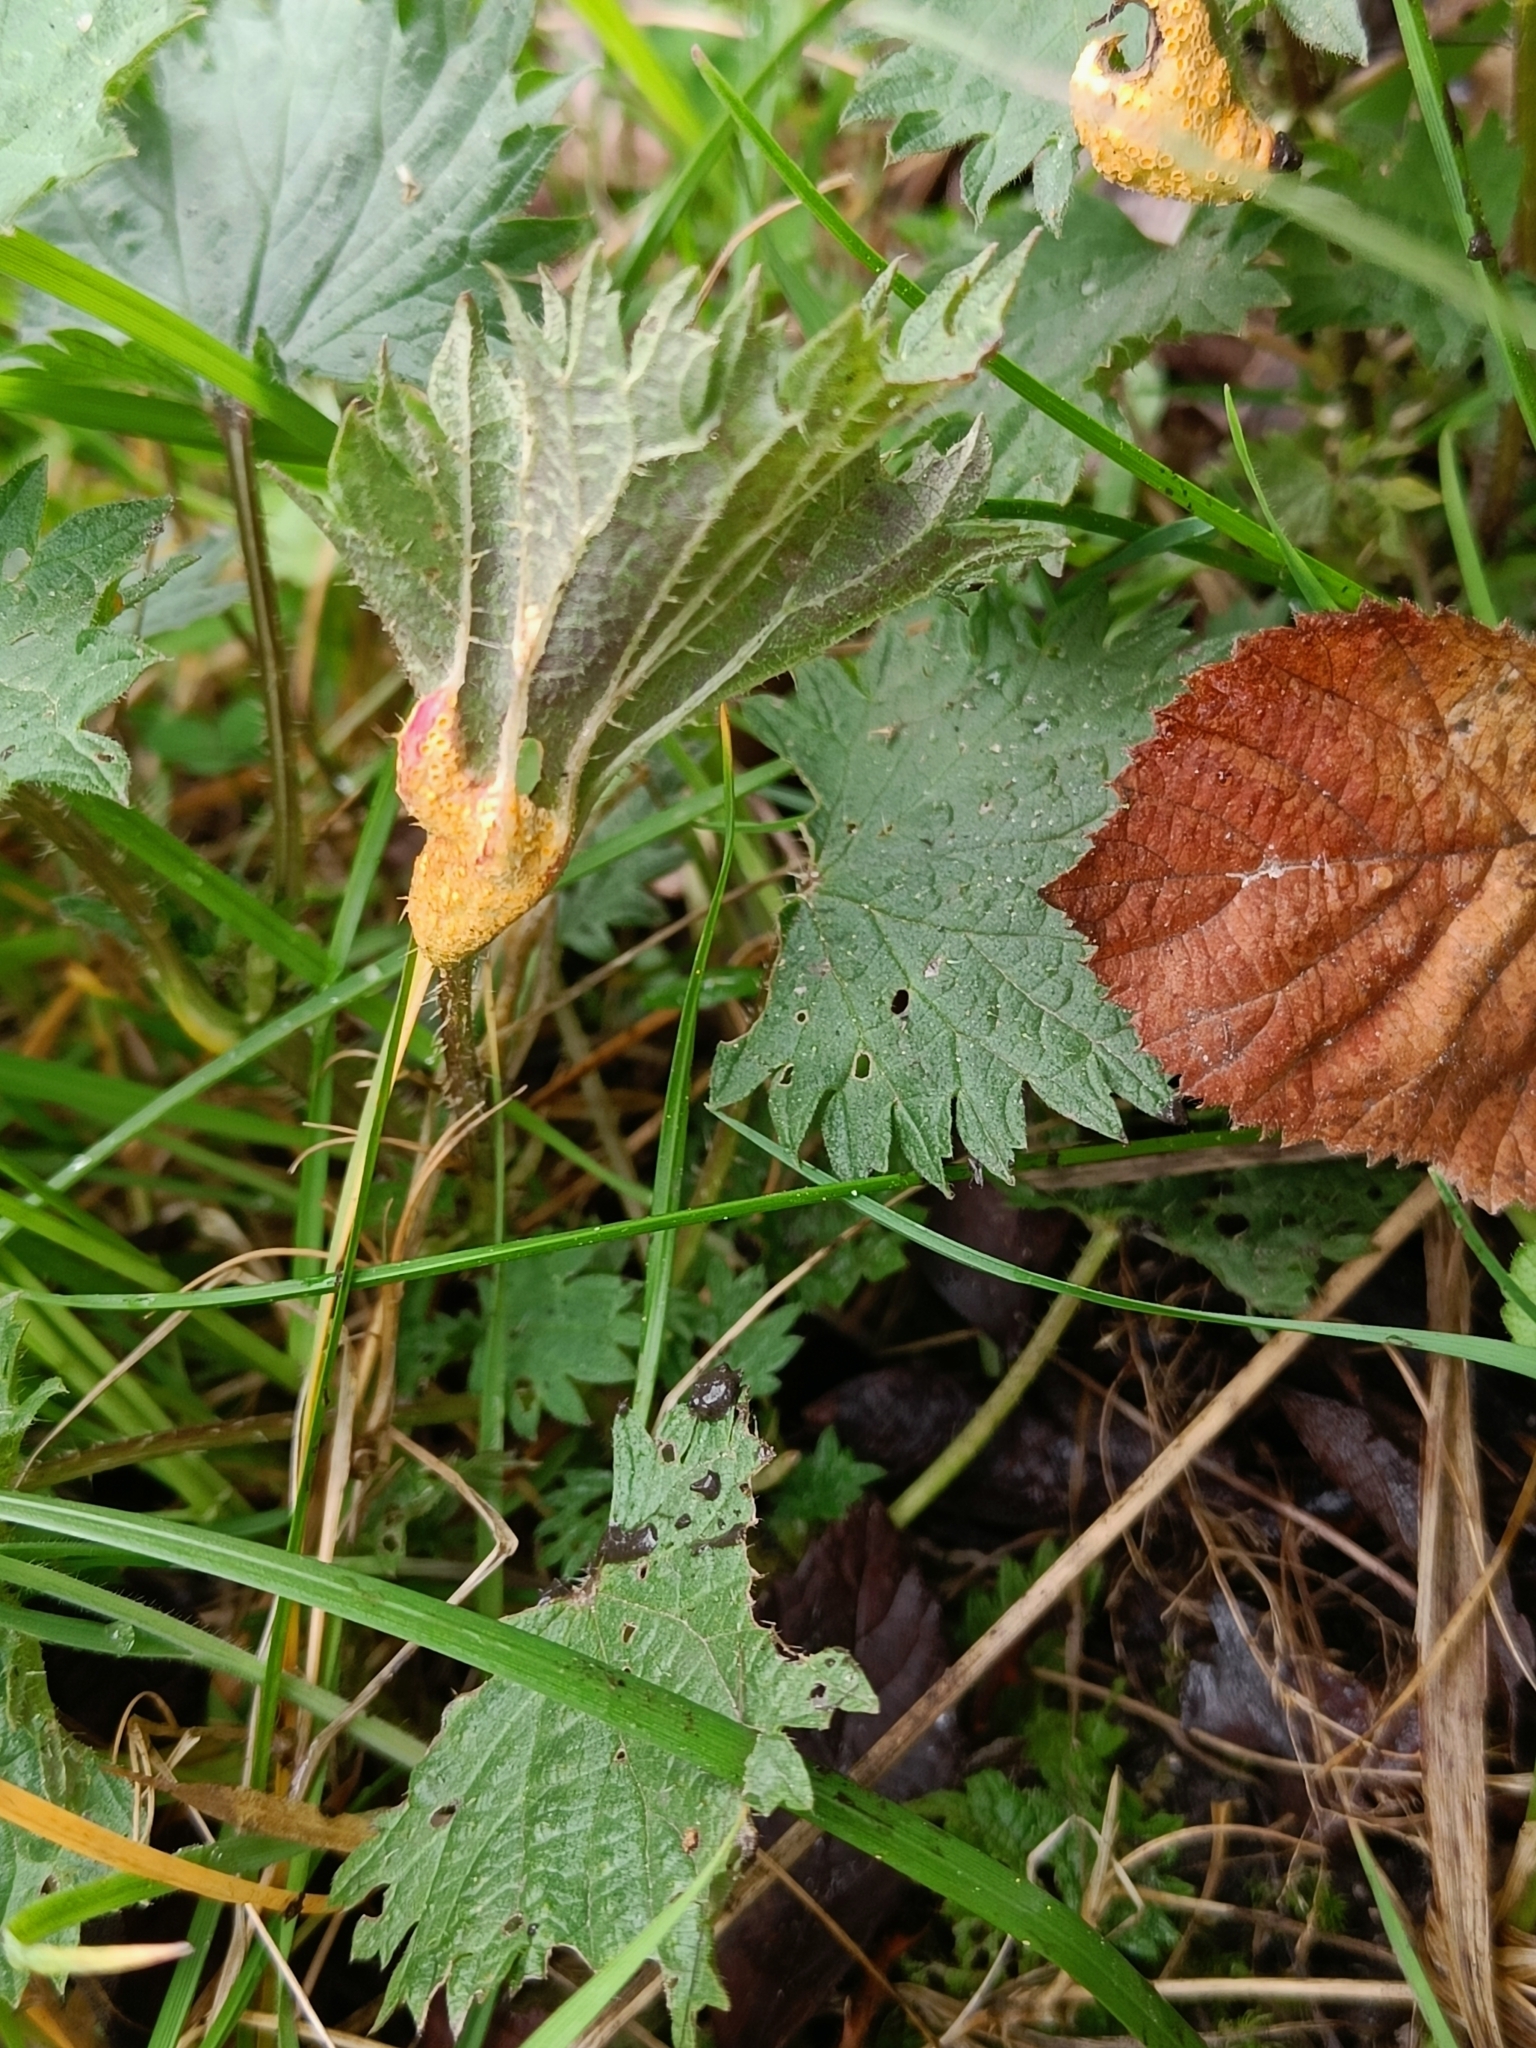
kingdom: Fungi
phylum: Basidiomycota
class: Pucciniomycetes
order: Pucciniales
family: Pucciniaceae
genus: Puccinia
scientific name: Puccinia urticata
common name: Nettle clustercup rust fungus
